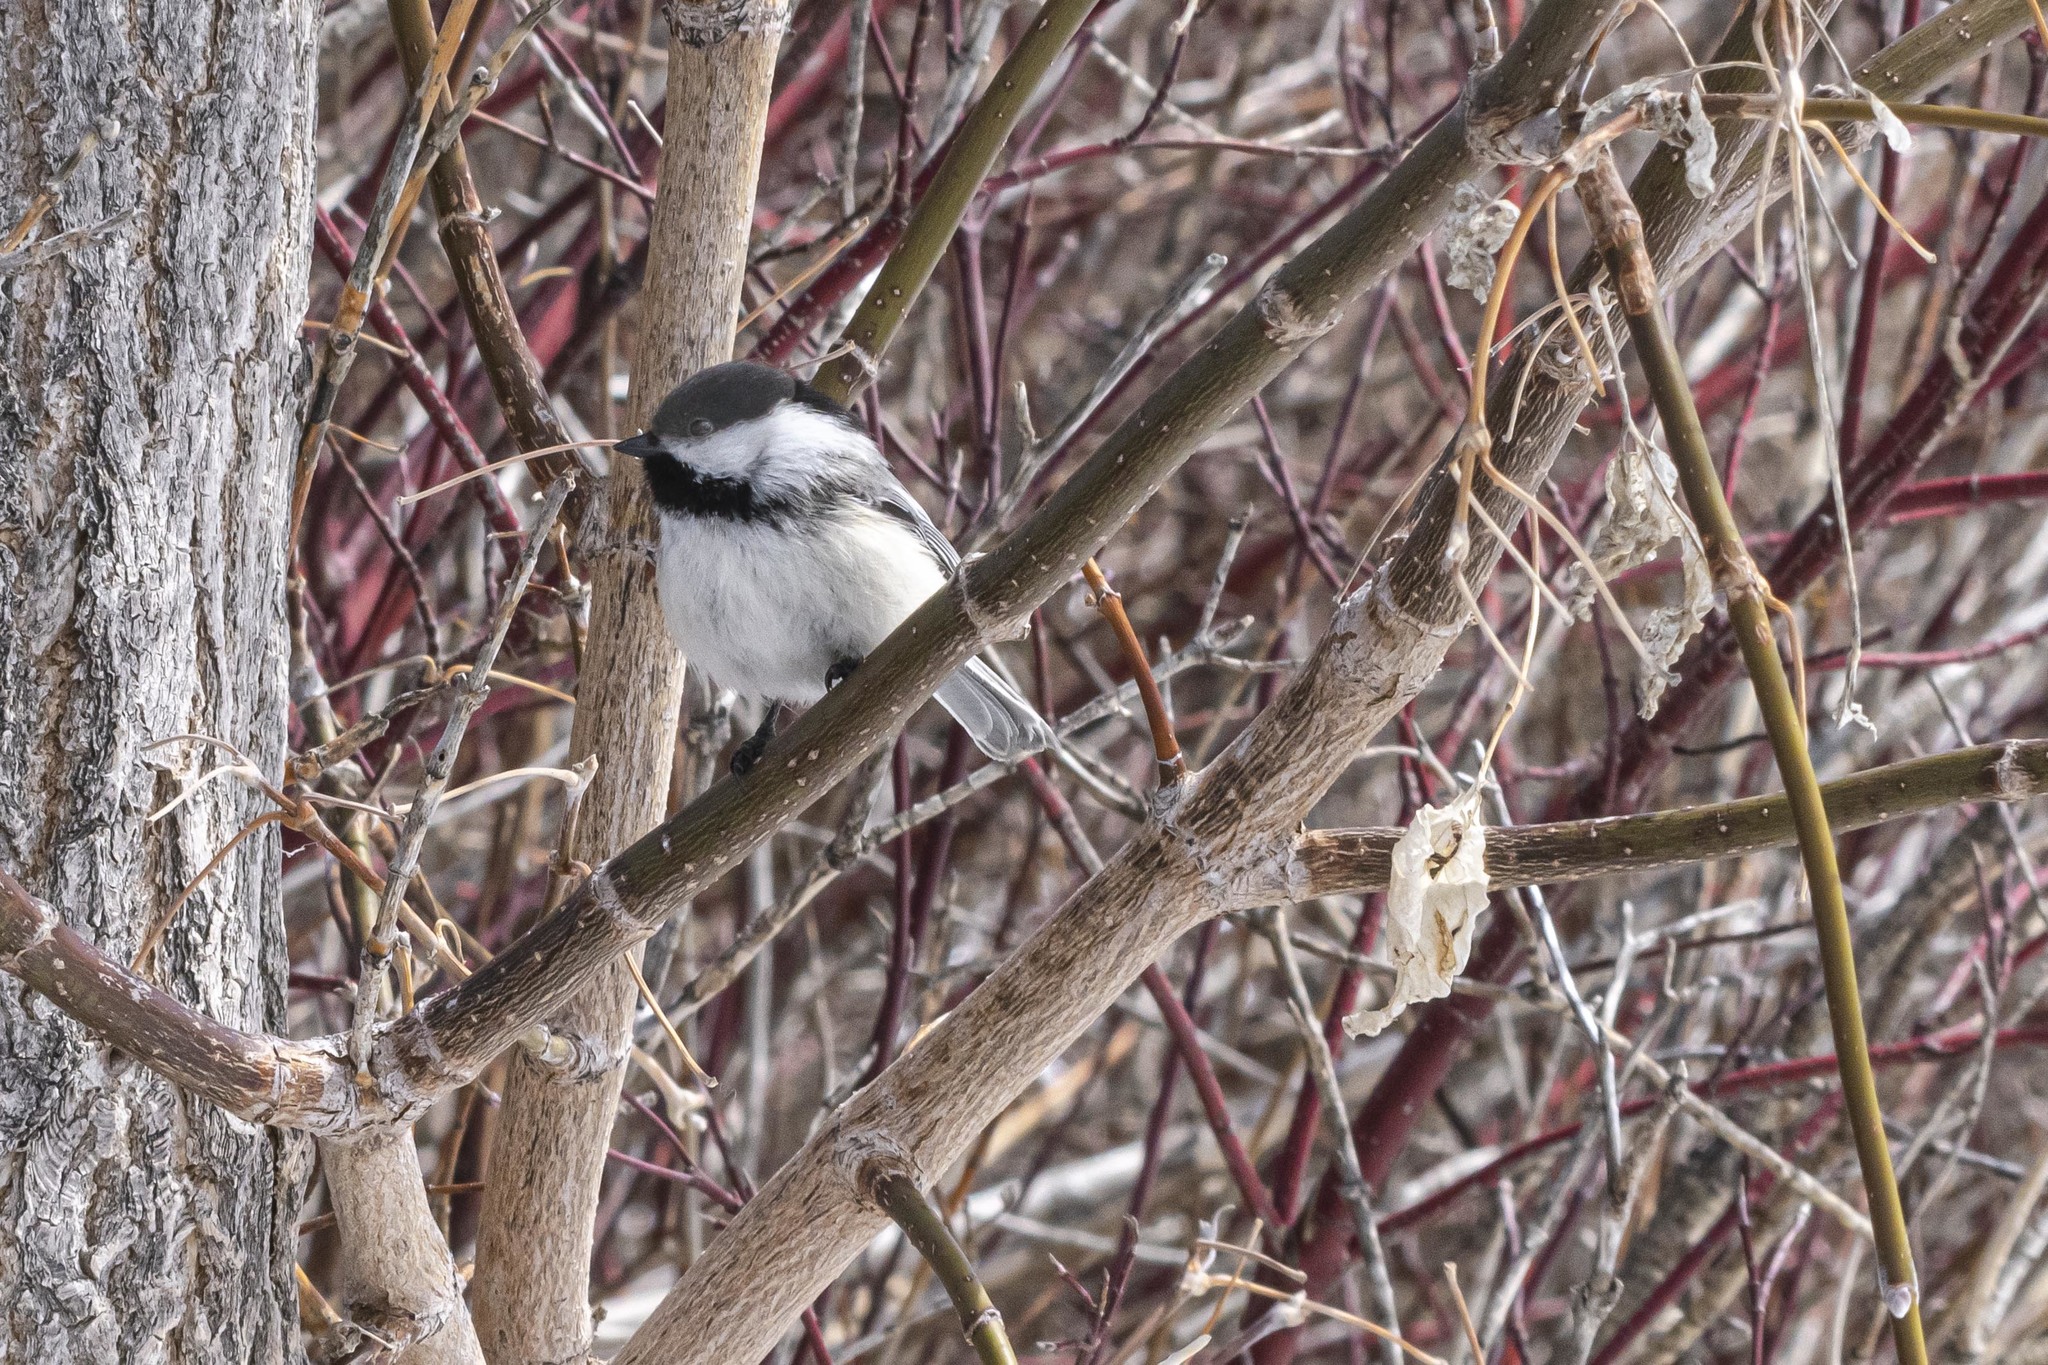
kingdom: Animalia
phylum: Chordata
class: Aves
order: Passeriformes
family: Paridae
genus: Poecile
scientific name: Poecile atricapillus
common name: Black-capped chickadee
